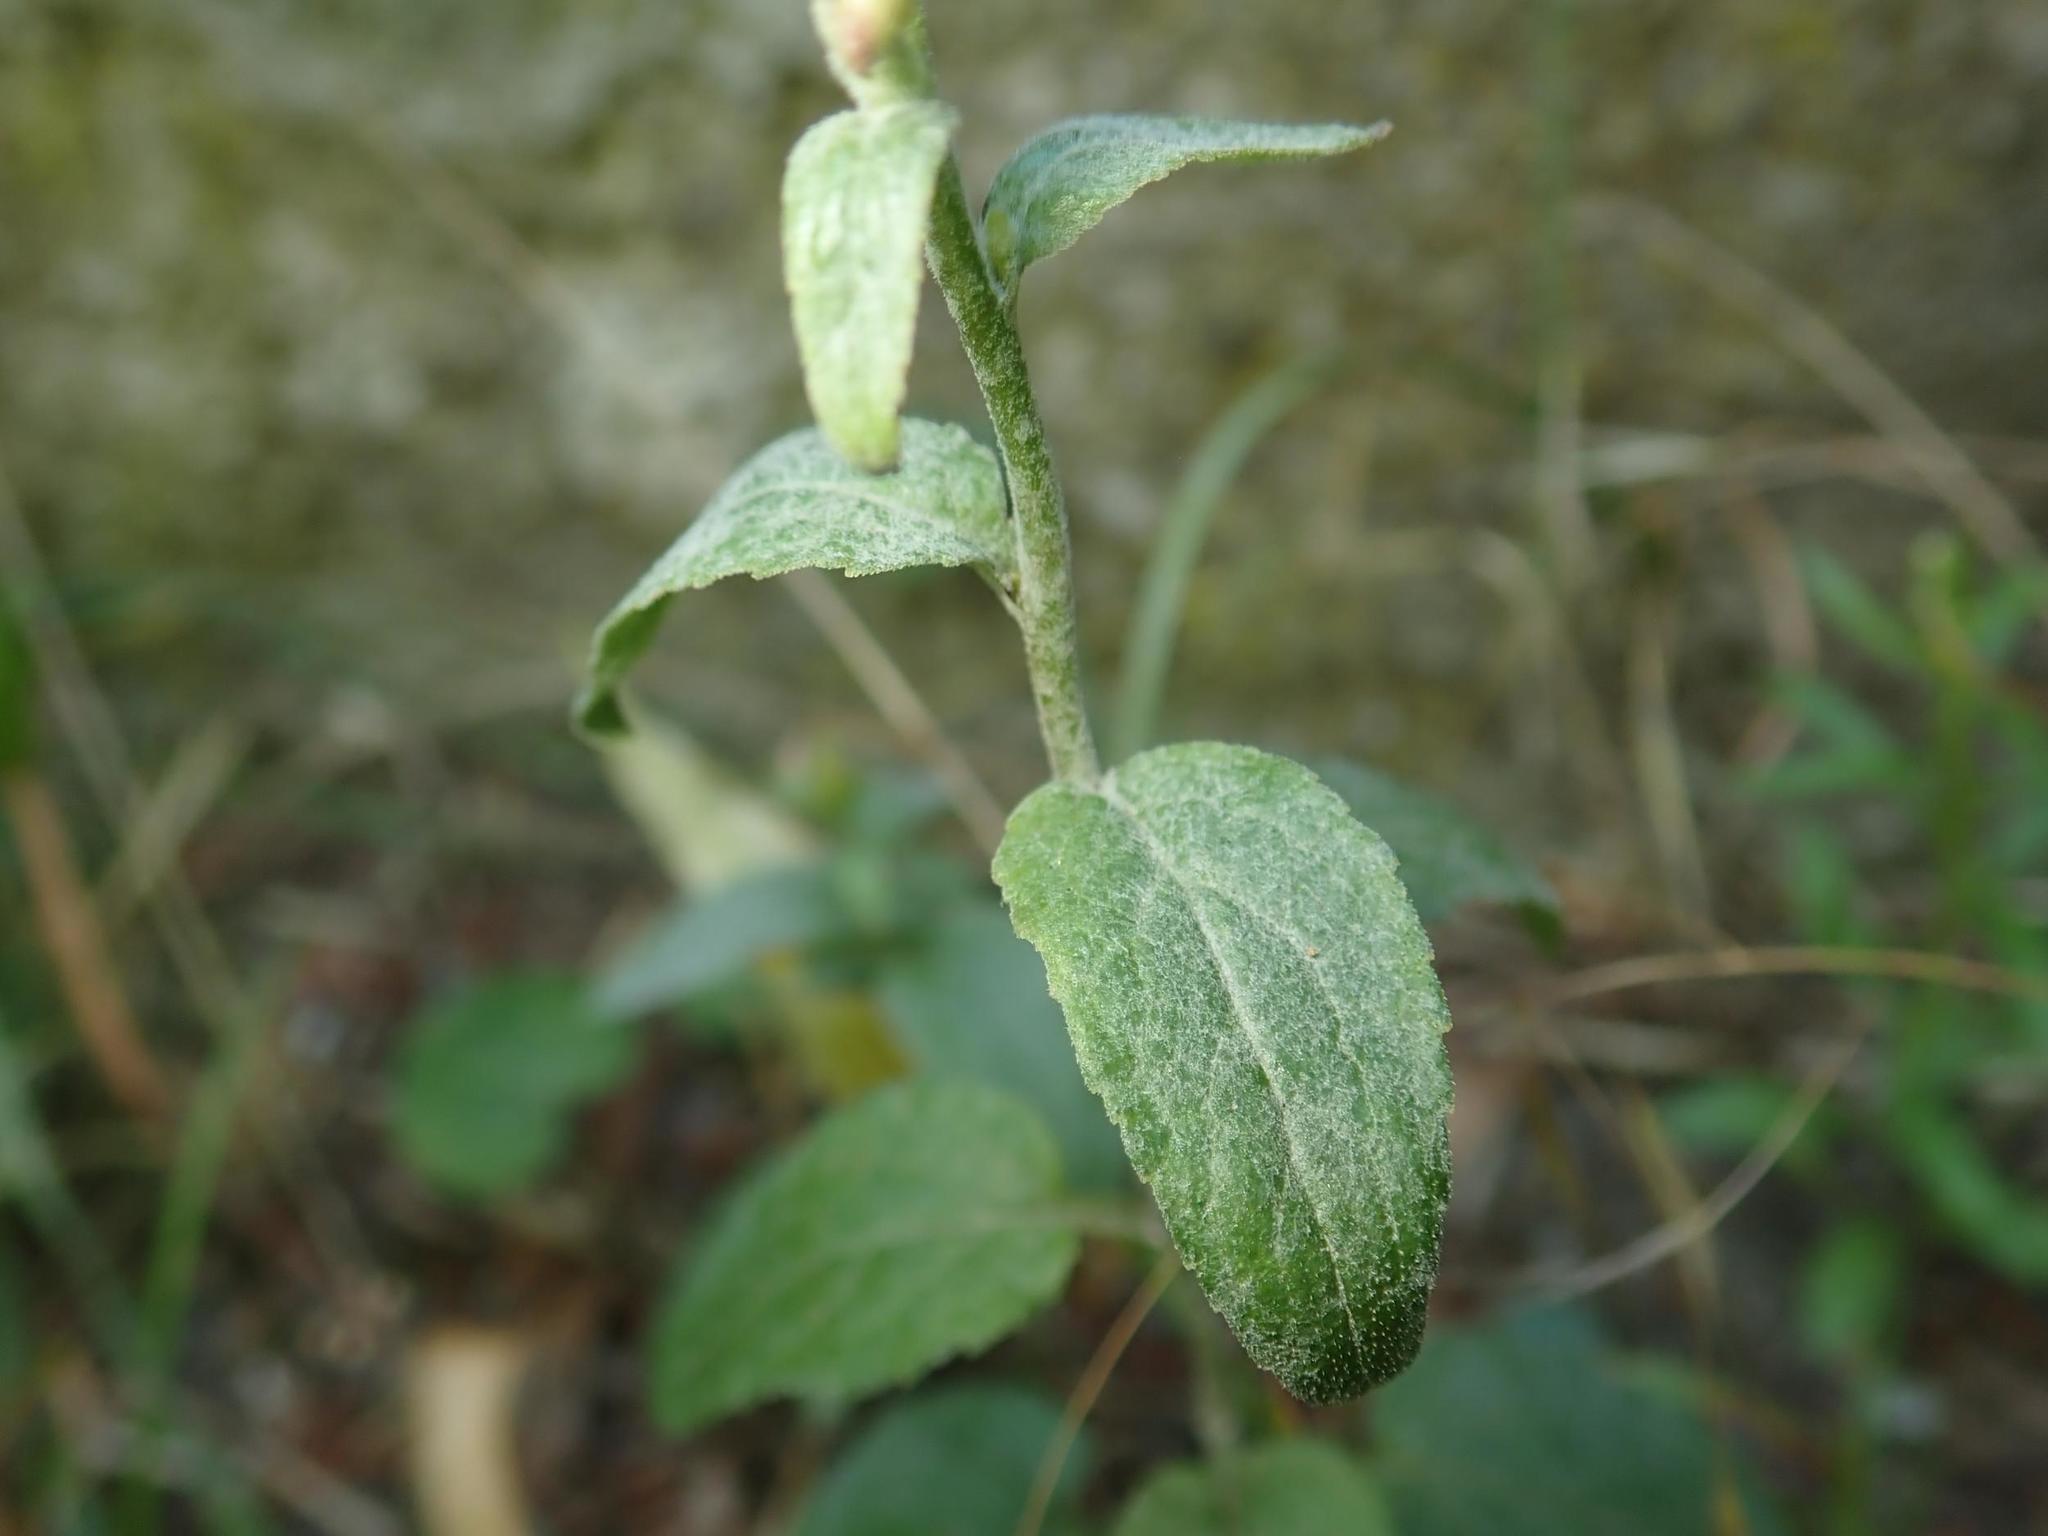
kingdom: Fungi
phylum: Ascomycota
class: Leotiomycetes
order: Helotiales
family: Erysiphaceae
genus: Golovinomyces
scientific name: Golovinomyces bolayi
